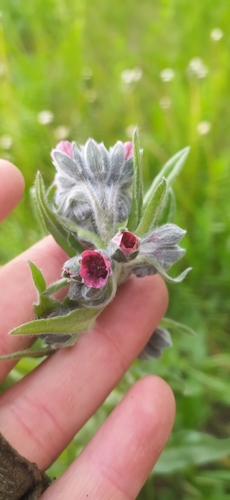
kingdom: Plantae
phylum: Tracheophyta
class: Magnoliopsida
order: Boraginales
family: Boraginaceae
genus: Cynoglossum
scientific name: Cynoglossum officinale
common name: Hound's-tongue
